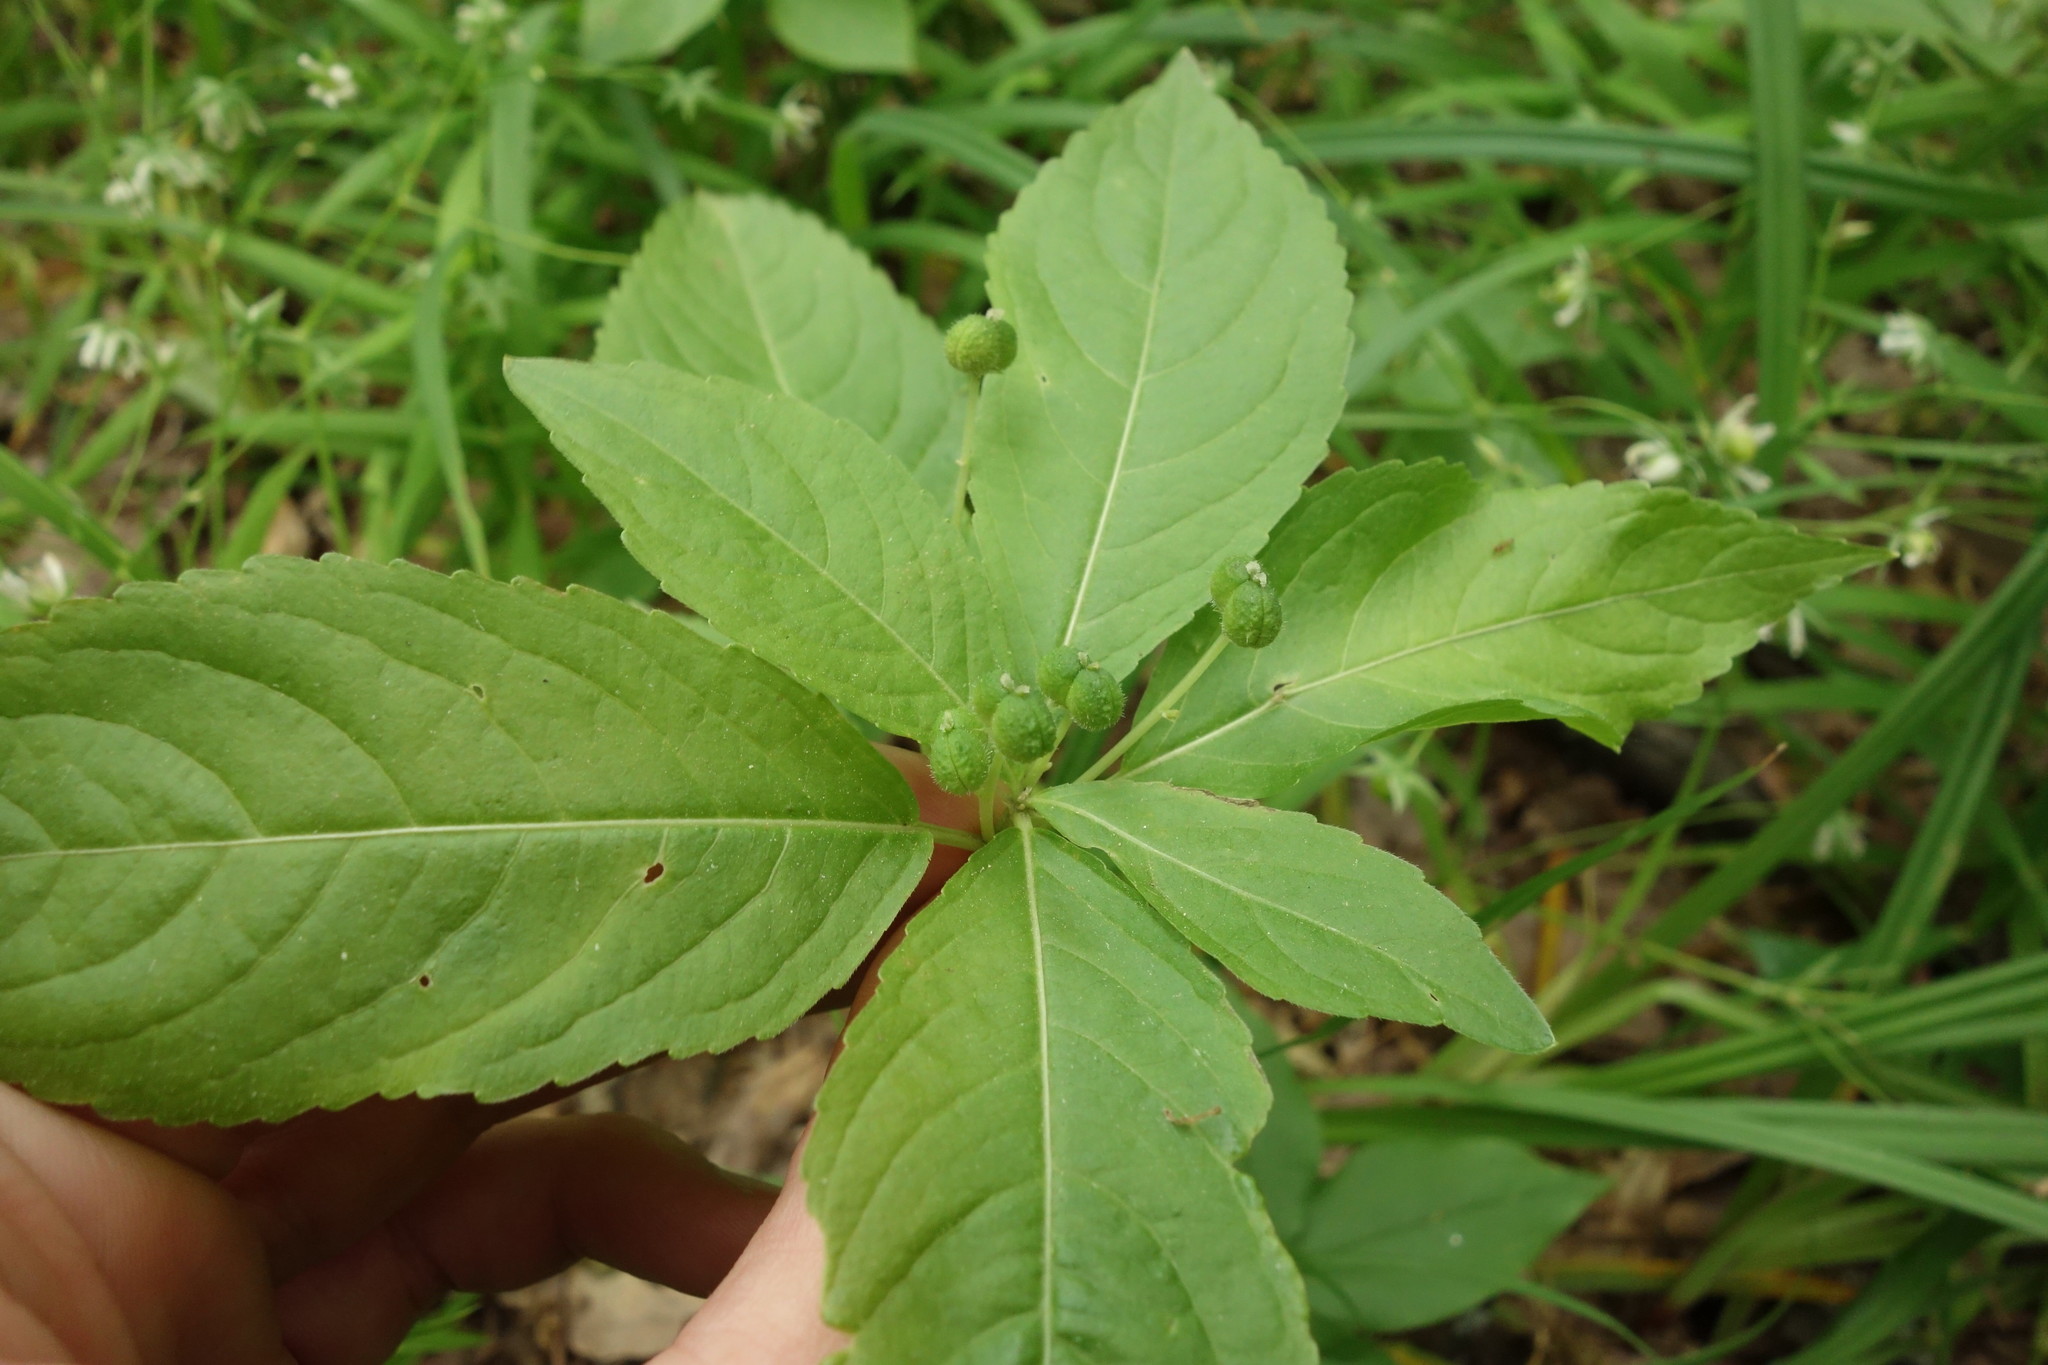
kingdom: Plantae
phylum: Tracheophyta
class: Magnoliopsida
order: Malpighiales
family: Euphorbiaceae
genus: Mercurialis
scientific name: Mercurialis perennis
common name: Dog mercury
